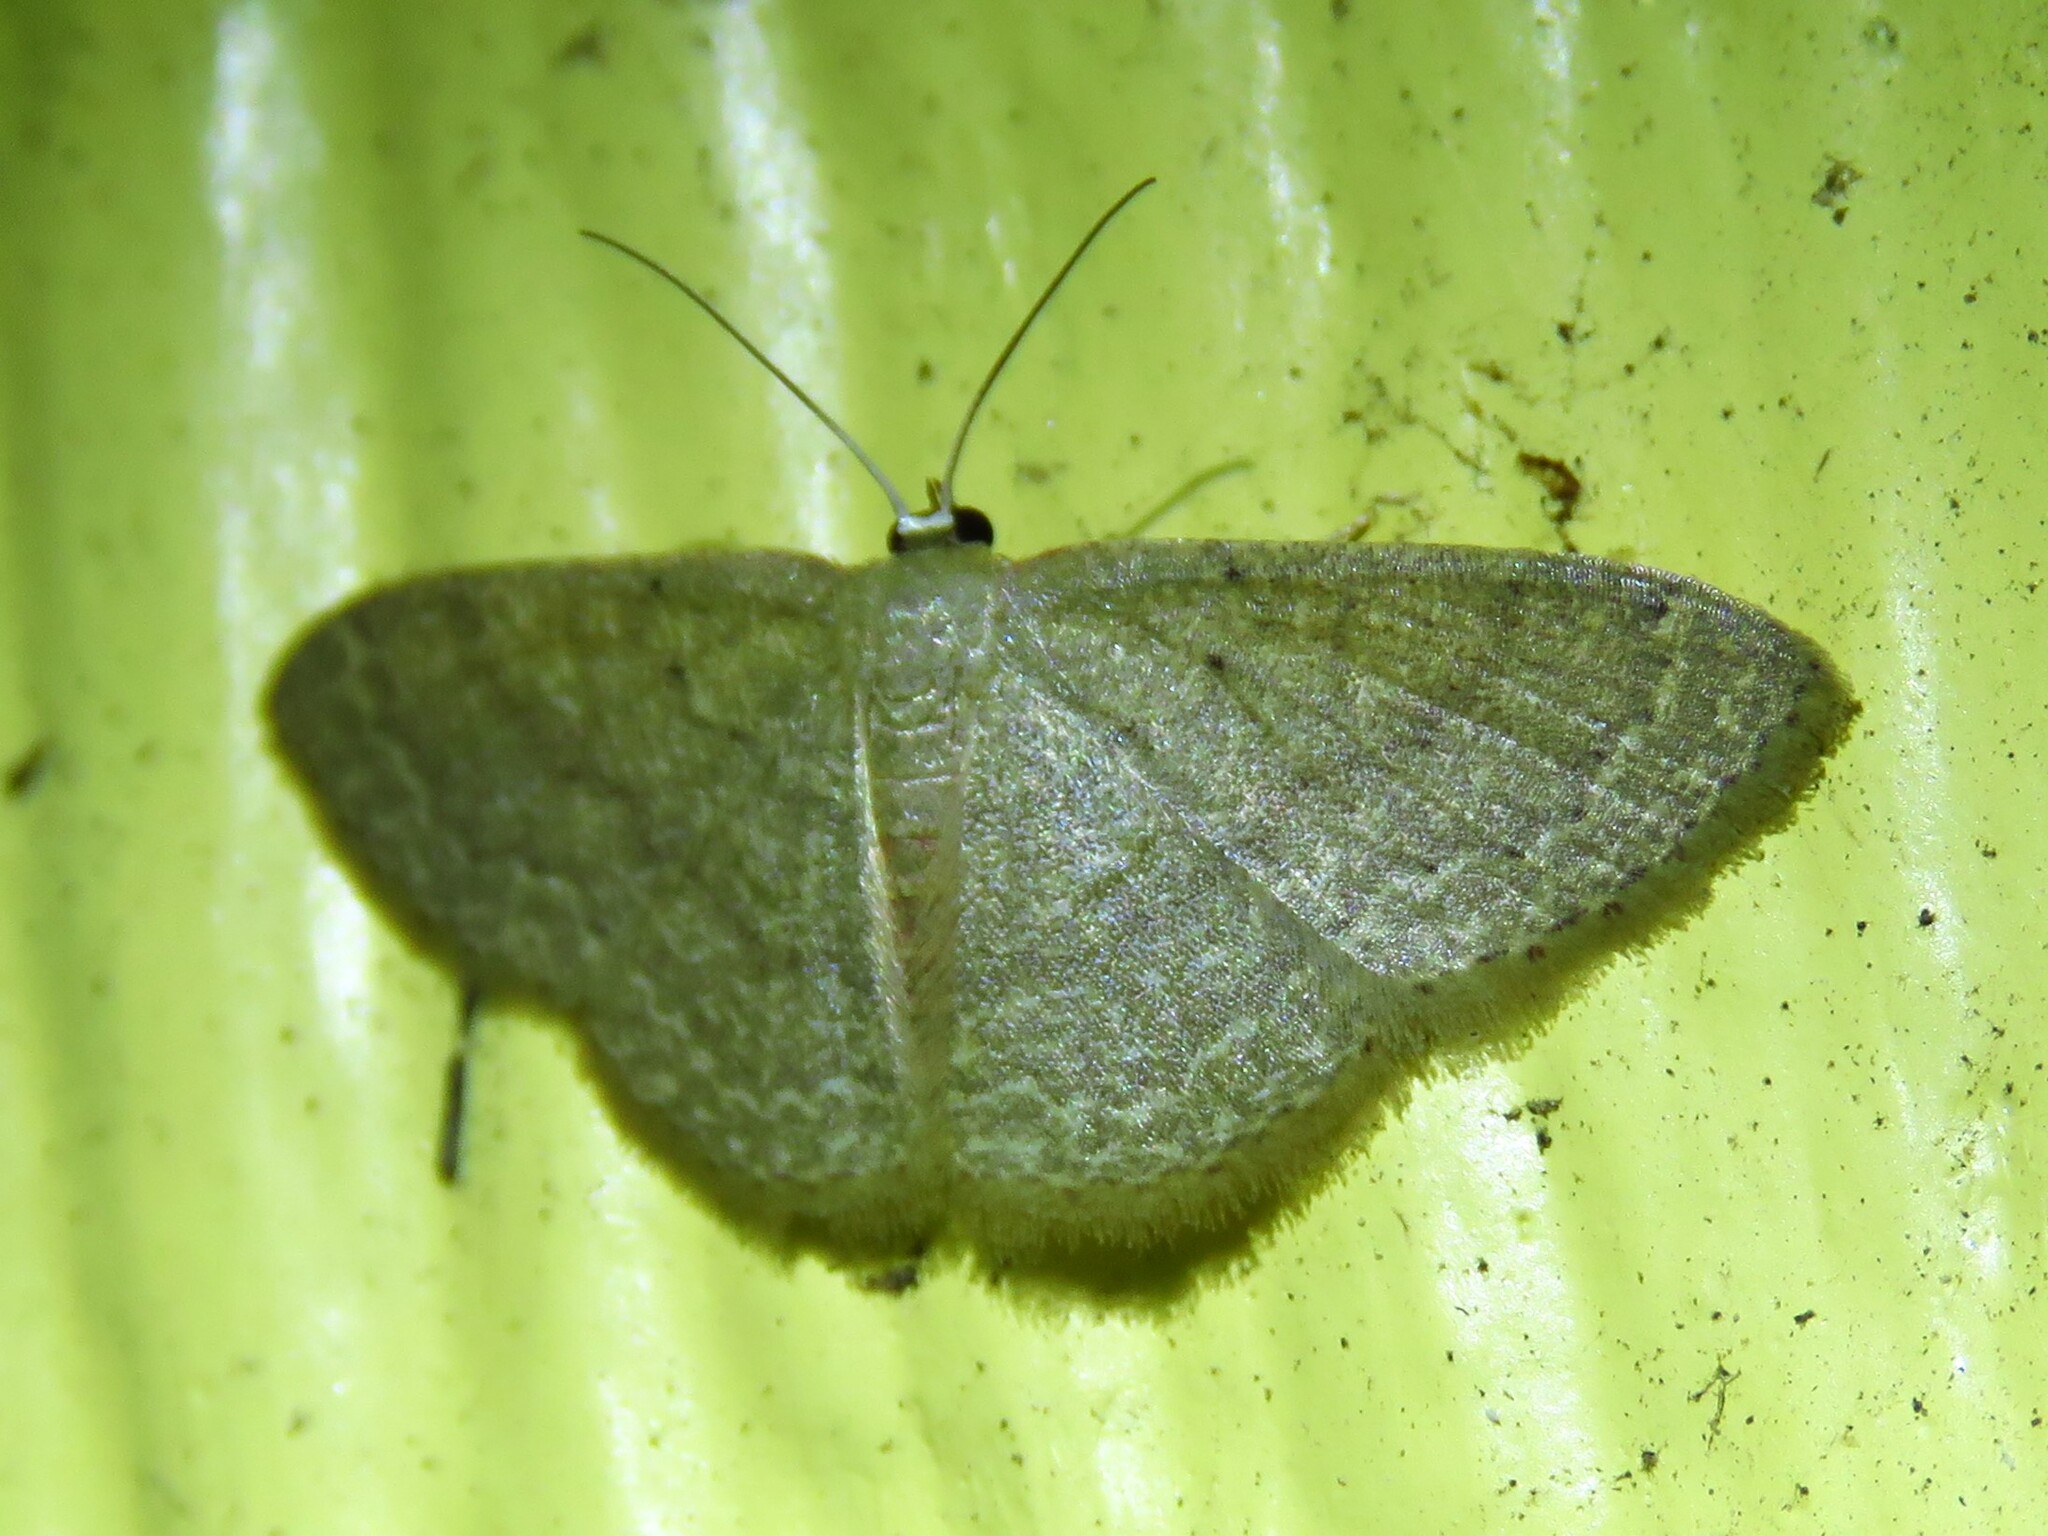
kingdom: Animalia
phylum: Arthropoda
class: Insecta
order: Lepidoptera
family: Geometridae
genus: Pleuroprucha
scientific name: Pleuroprucha insulsaria
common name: Common tan wave
